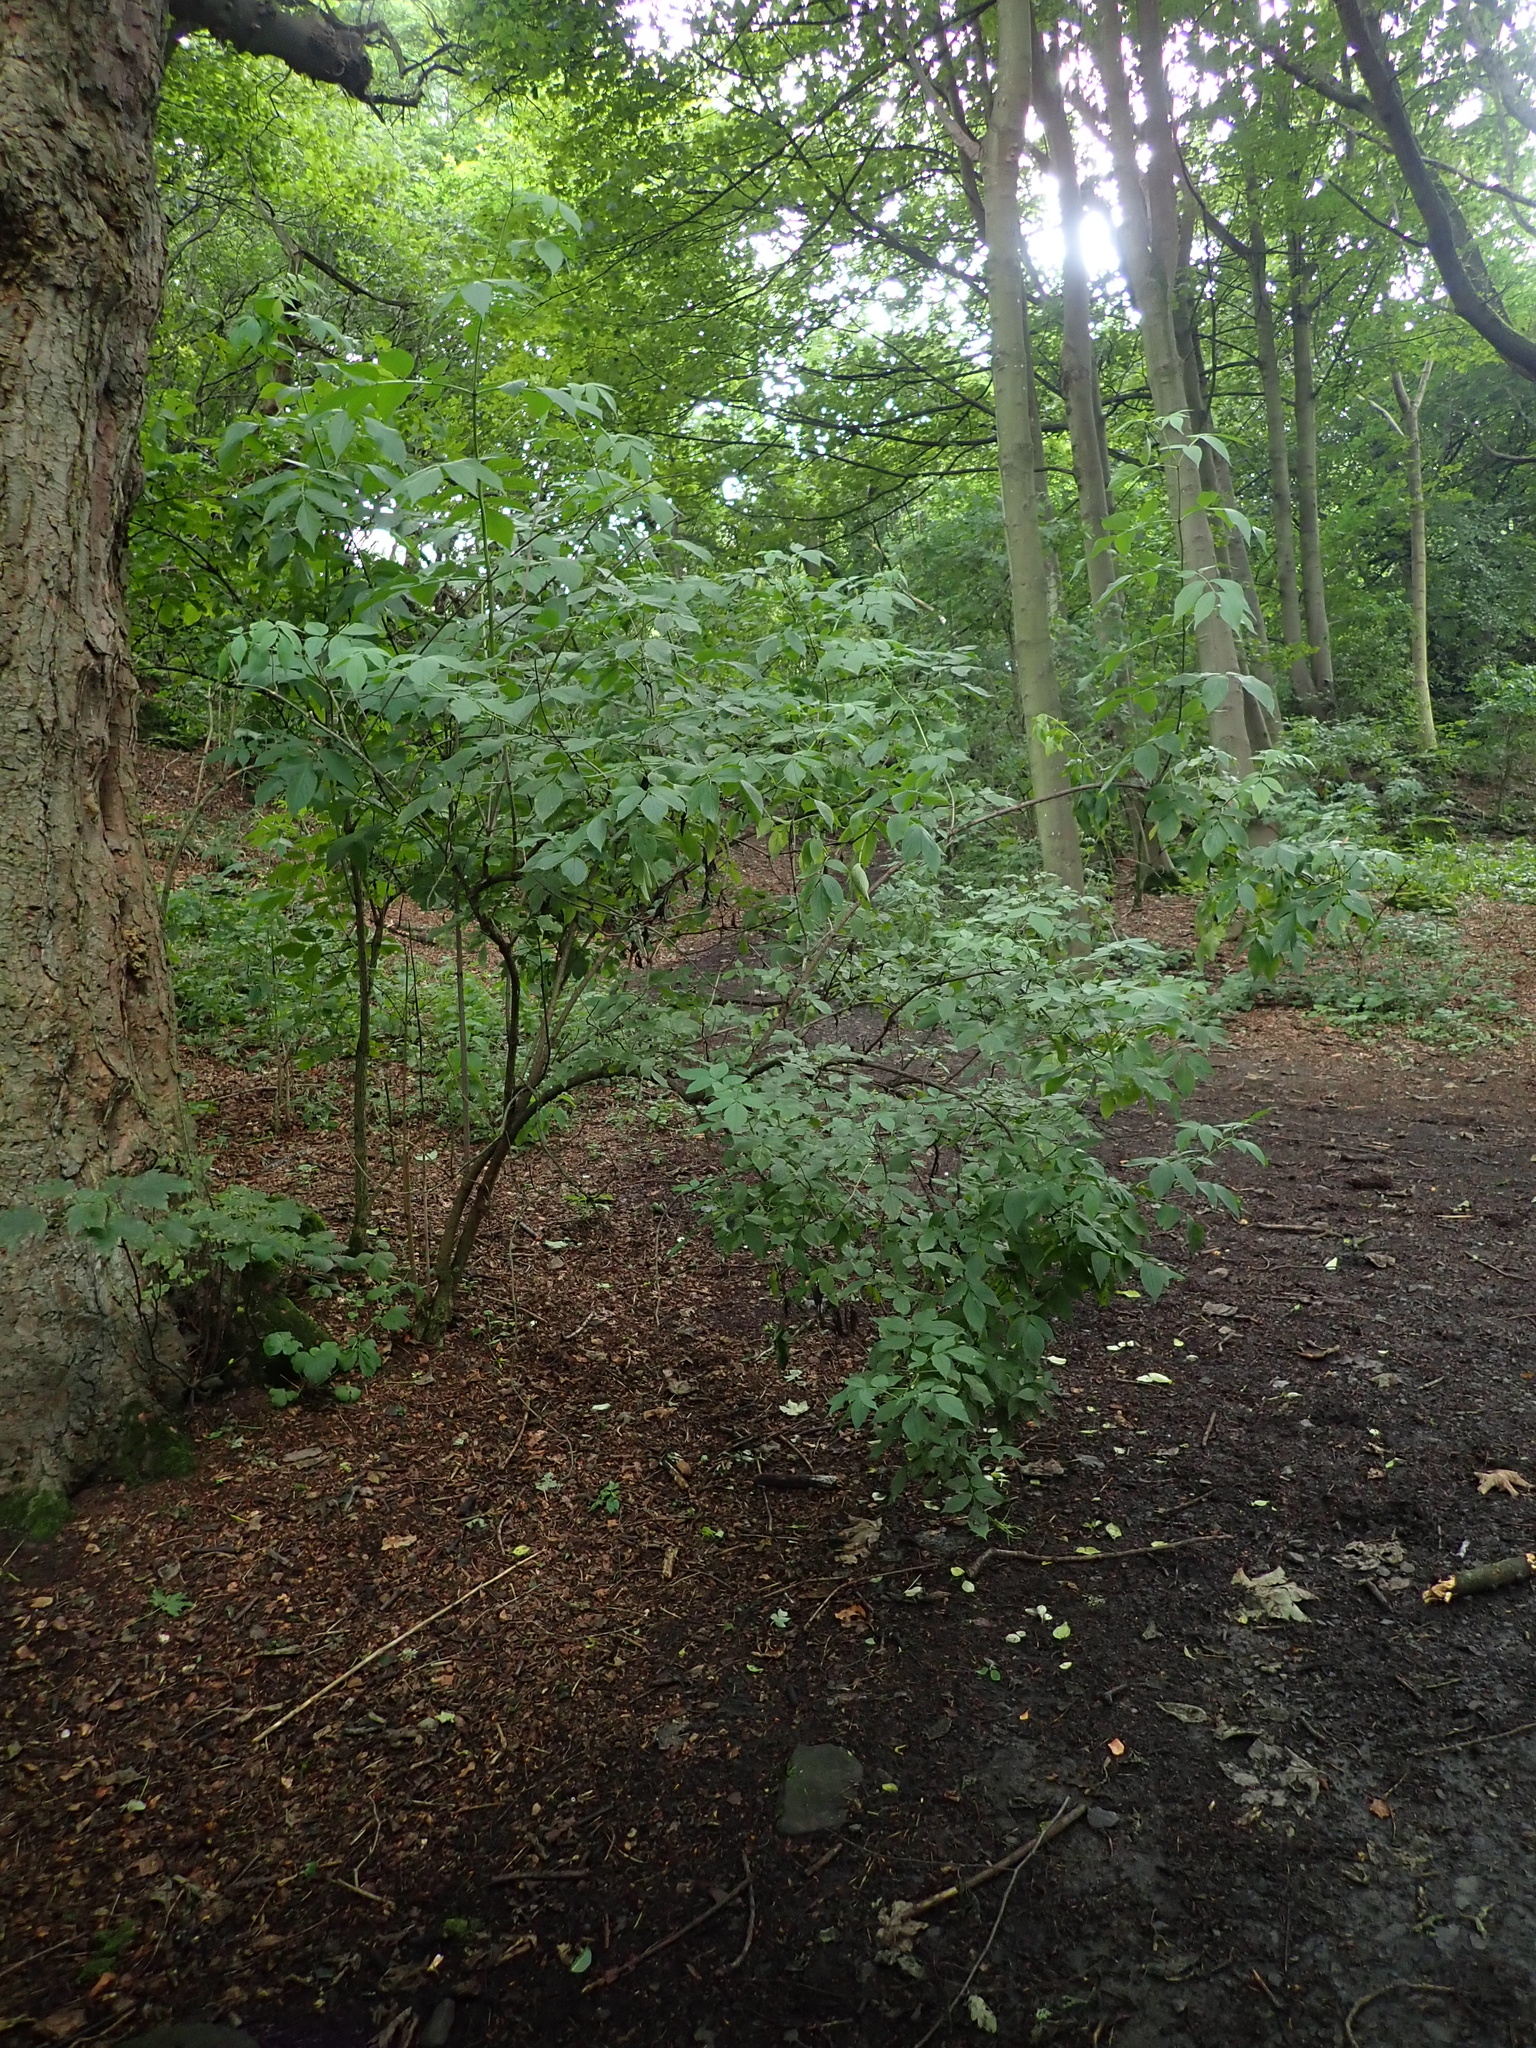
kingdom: Plantae
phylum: Tracheophyta
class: Magnoliopsida
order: Dipsacales
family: Viburnaceae
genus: Sambucus
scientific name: Sambucus nigra
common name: Elder
